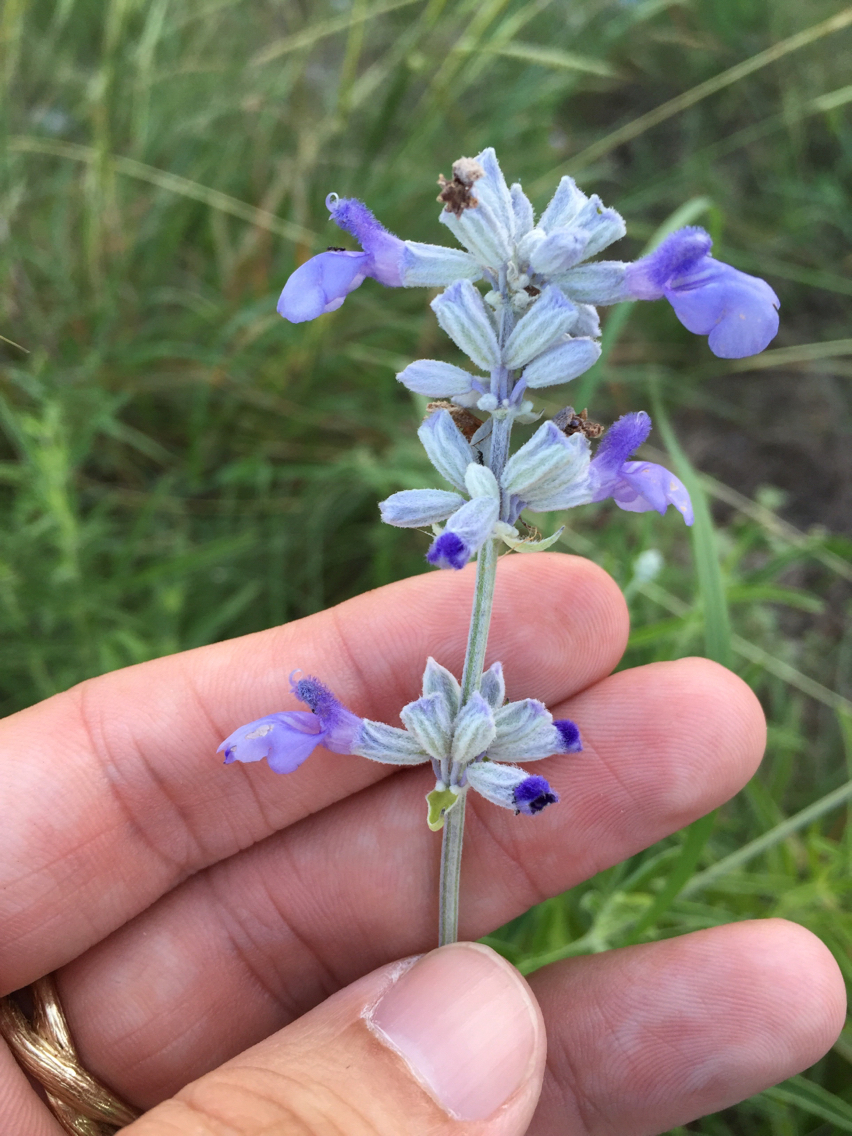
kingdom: Plantae
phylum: Tracheophyta
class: Magnoliopsida
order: Lamiales
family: Lamiaceae
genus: Salvia
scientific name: Salvia farinacea
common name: Mealy sage
